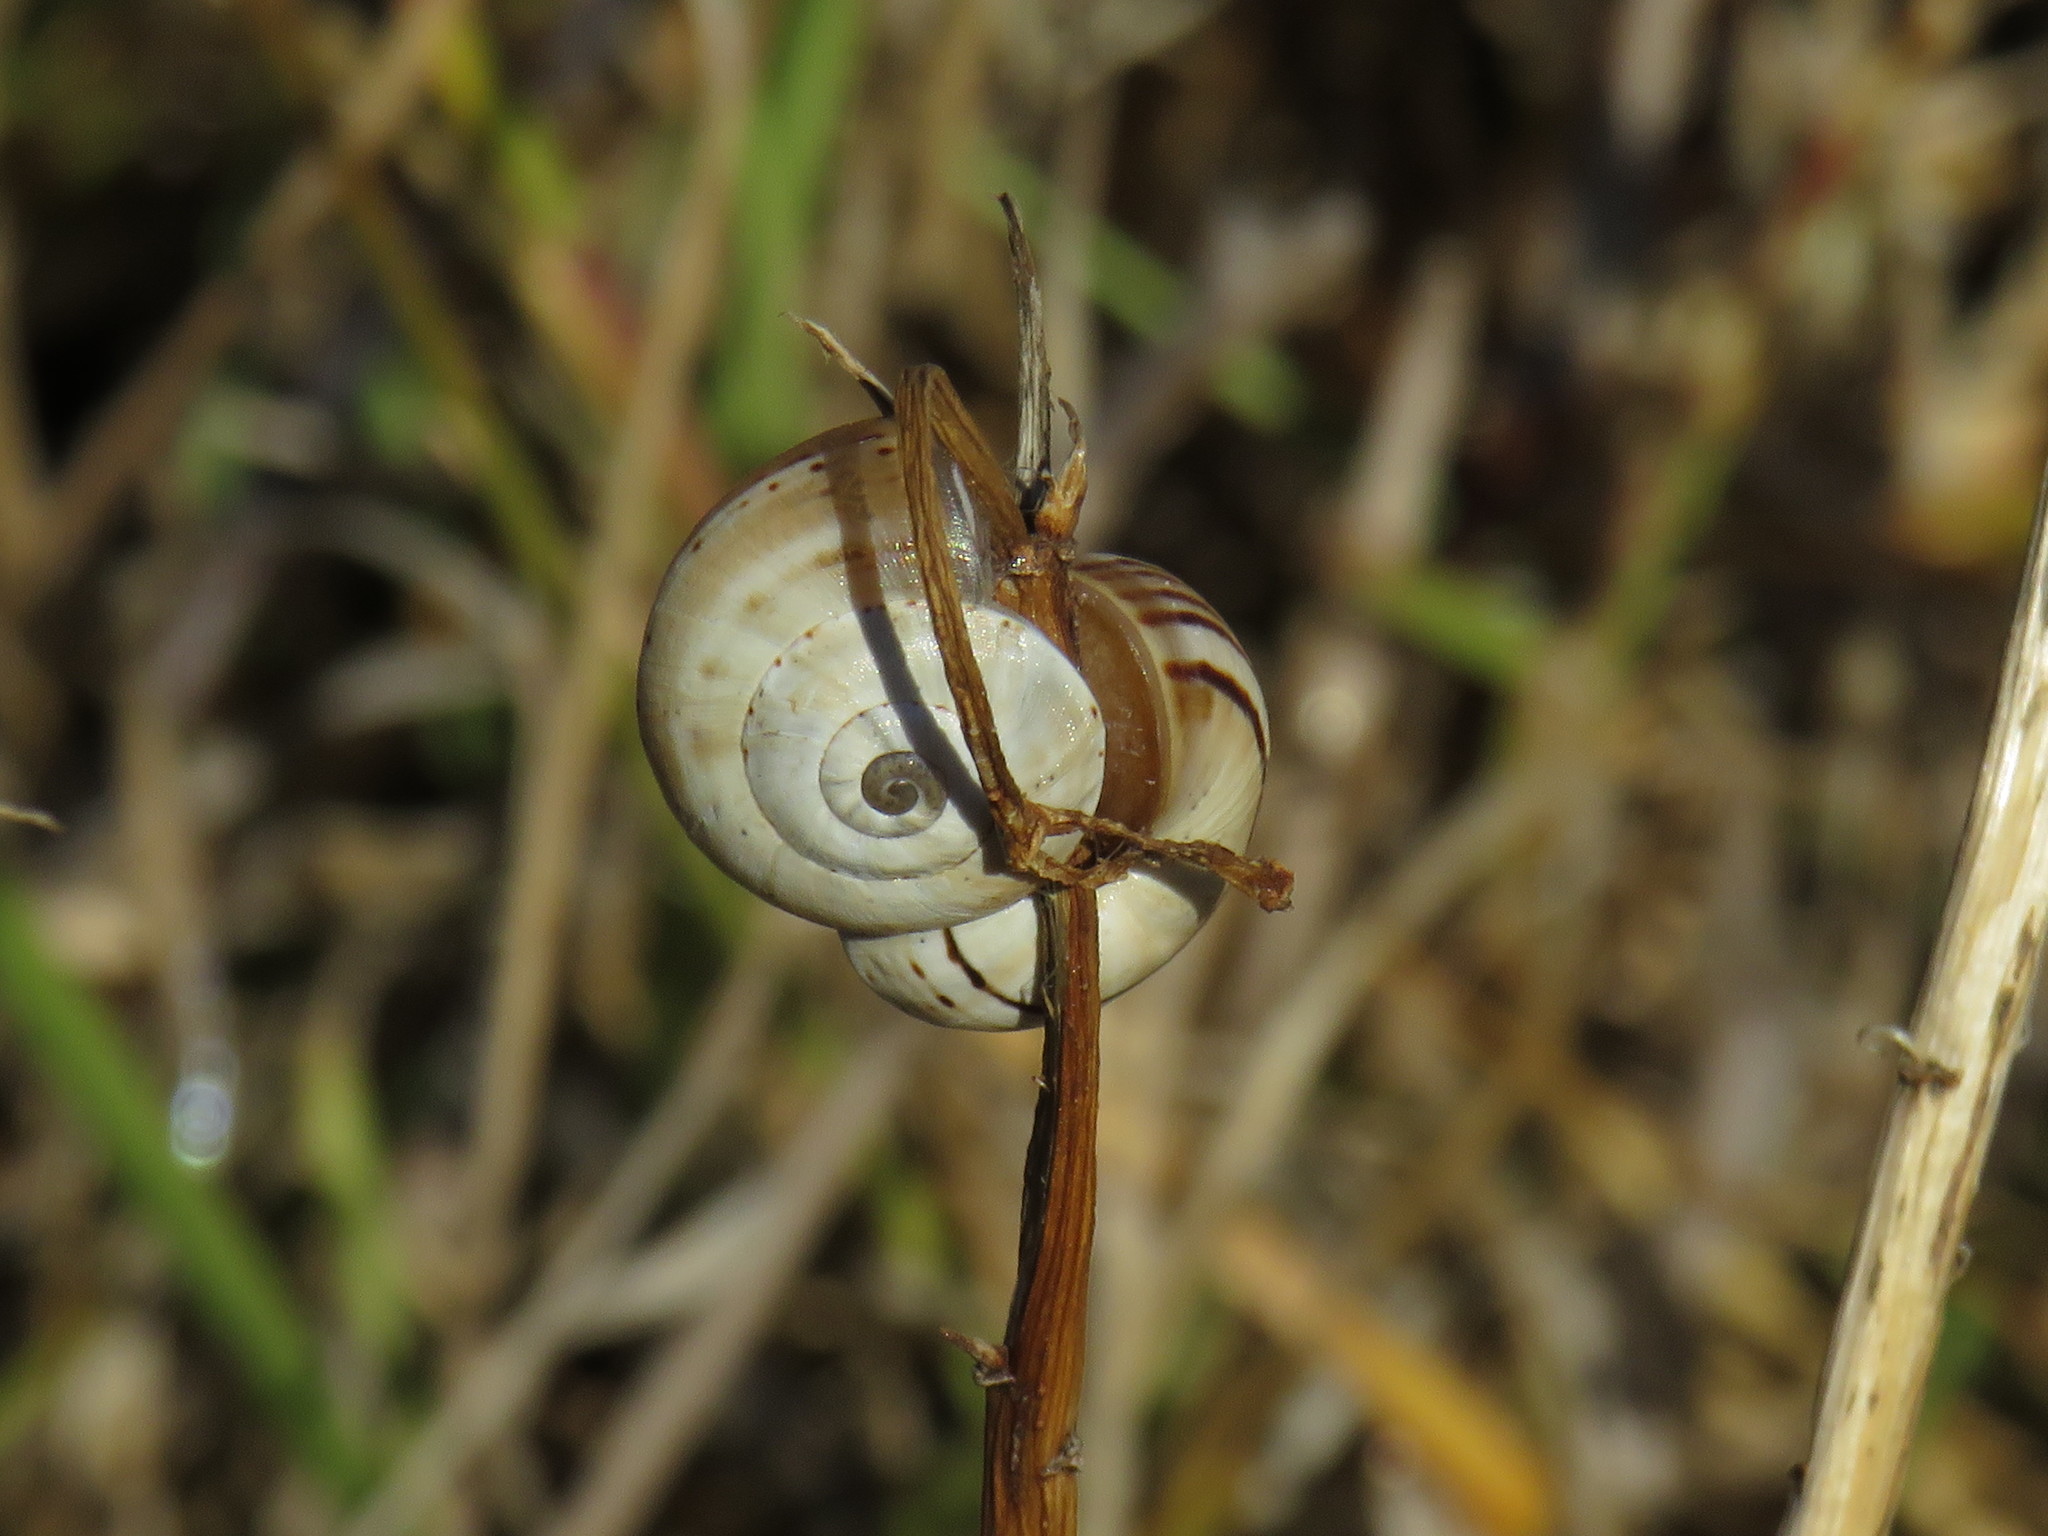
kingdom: Animalia
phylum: Mollusca
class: Gastropoda
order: Stylommatophora
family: Helicidae
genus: Theba
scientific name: Theba pisana
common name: White snail
